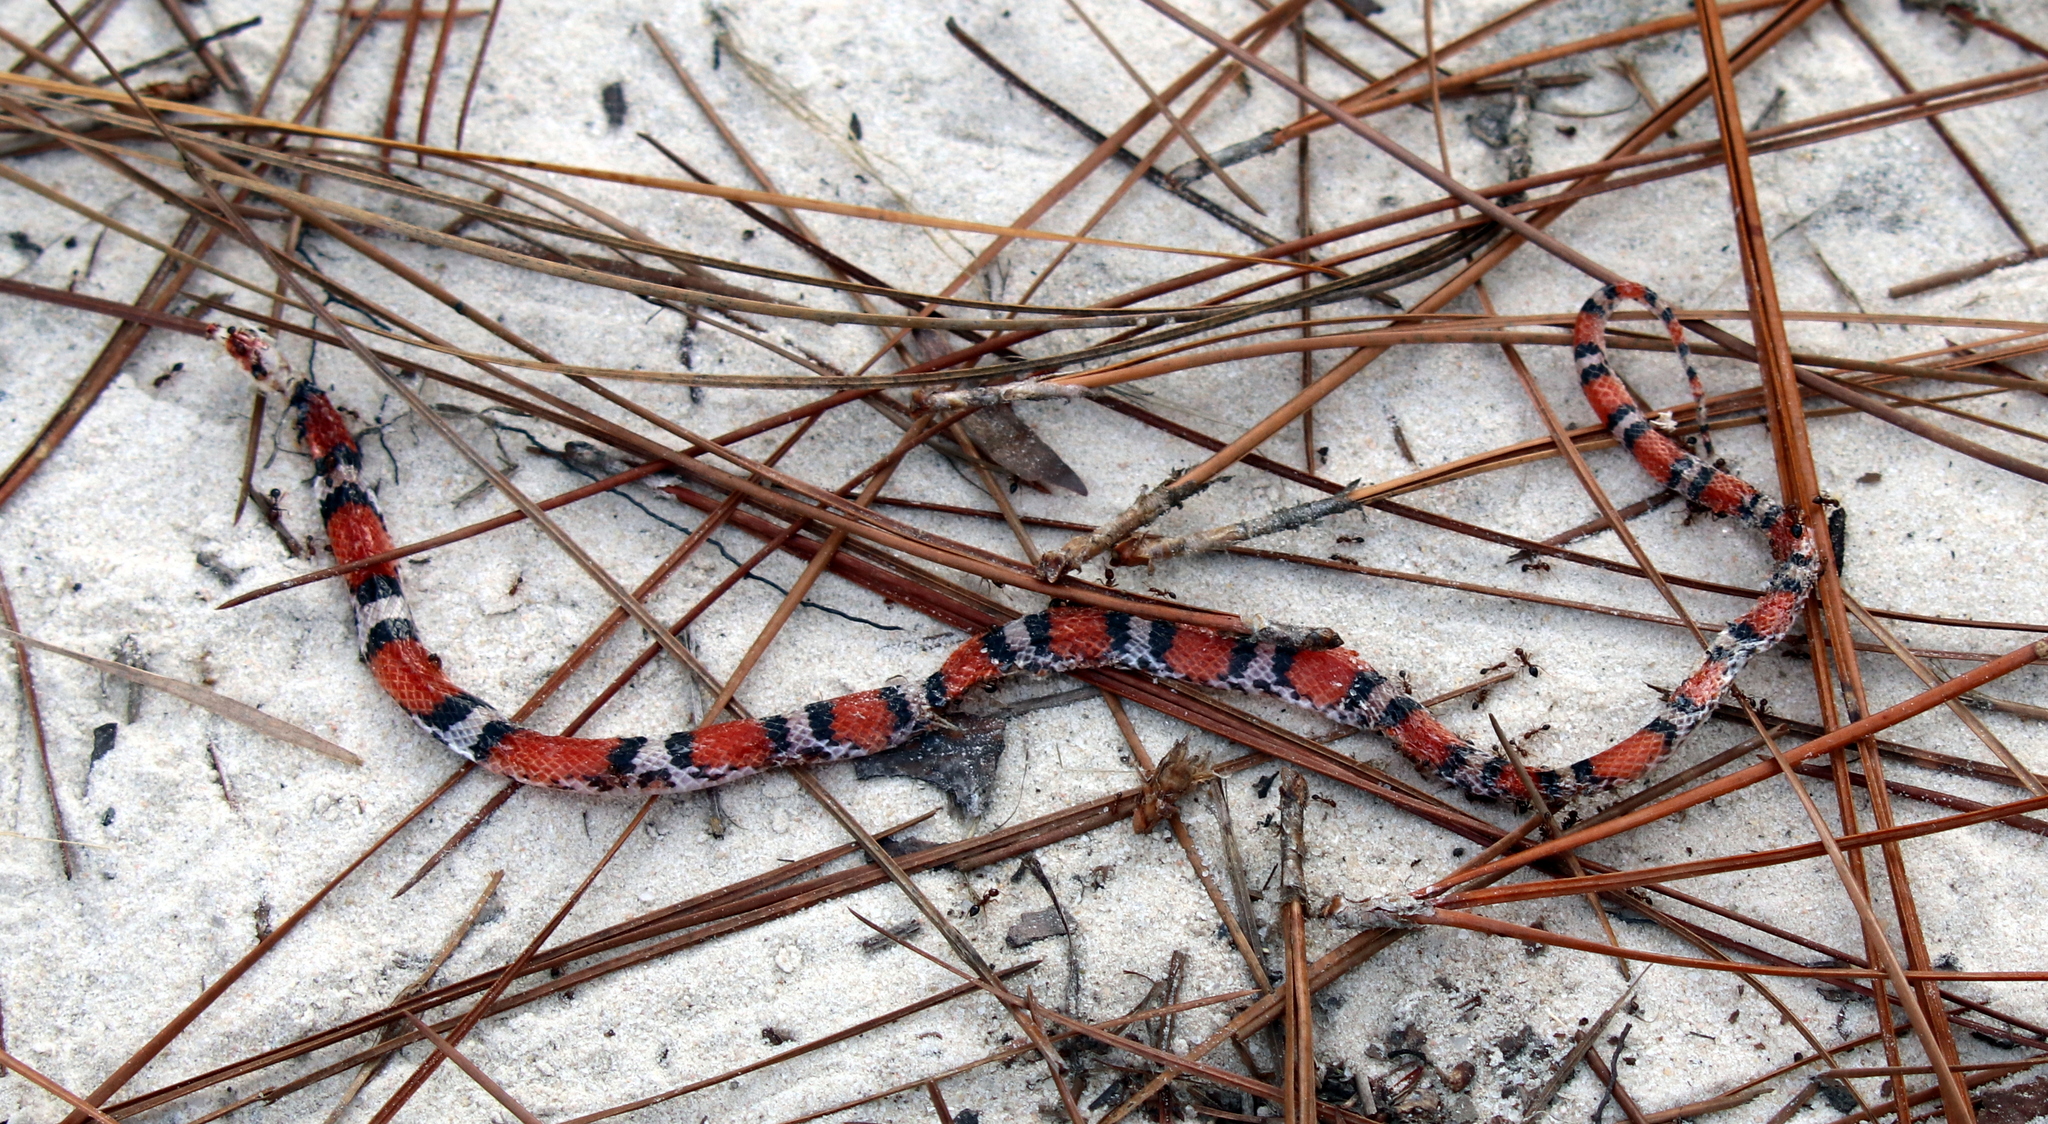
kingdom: Animalia
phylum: Chordata
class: Squamata
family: Colubridae
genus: Cemophora
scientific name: Cemophora coccinea
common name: Scarlet snake
